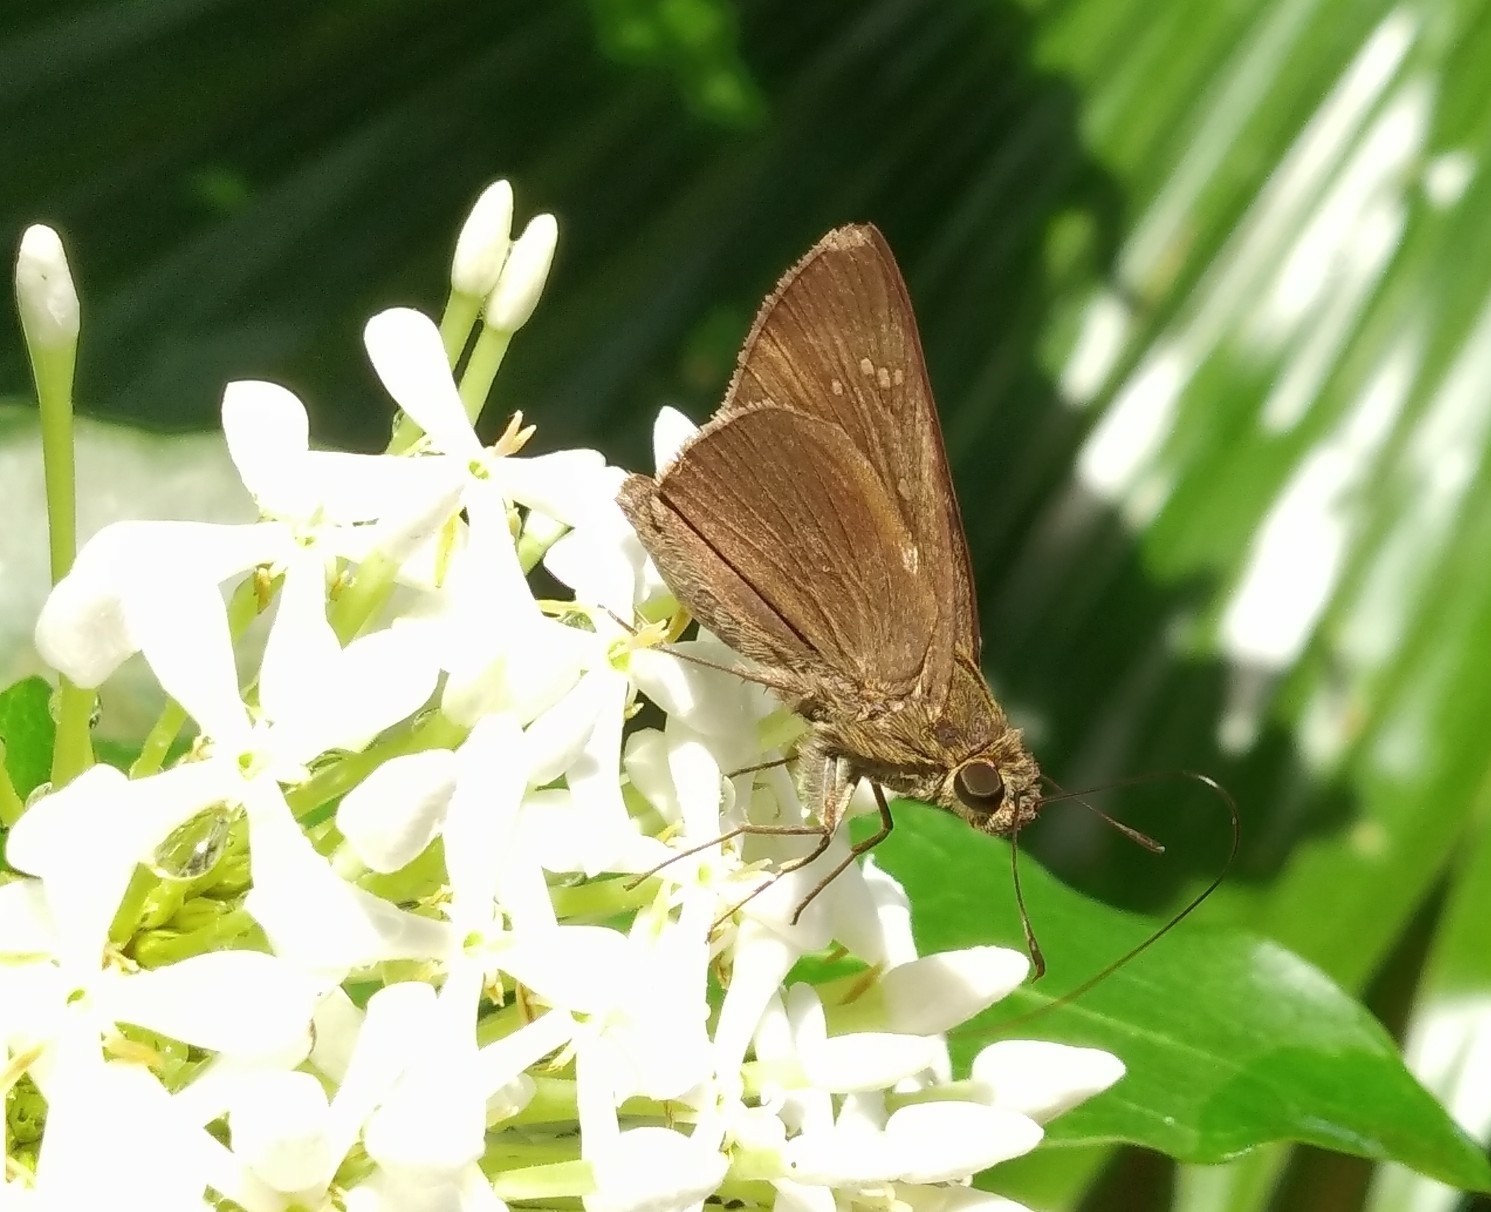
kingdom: Animalia
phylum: Arthropoda
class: Insecta
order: Lepidoptera
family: Hesperiidae
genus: Baoris
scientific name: Baoris farri
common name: Paintbrush swift
